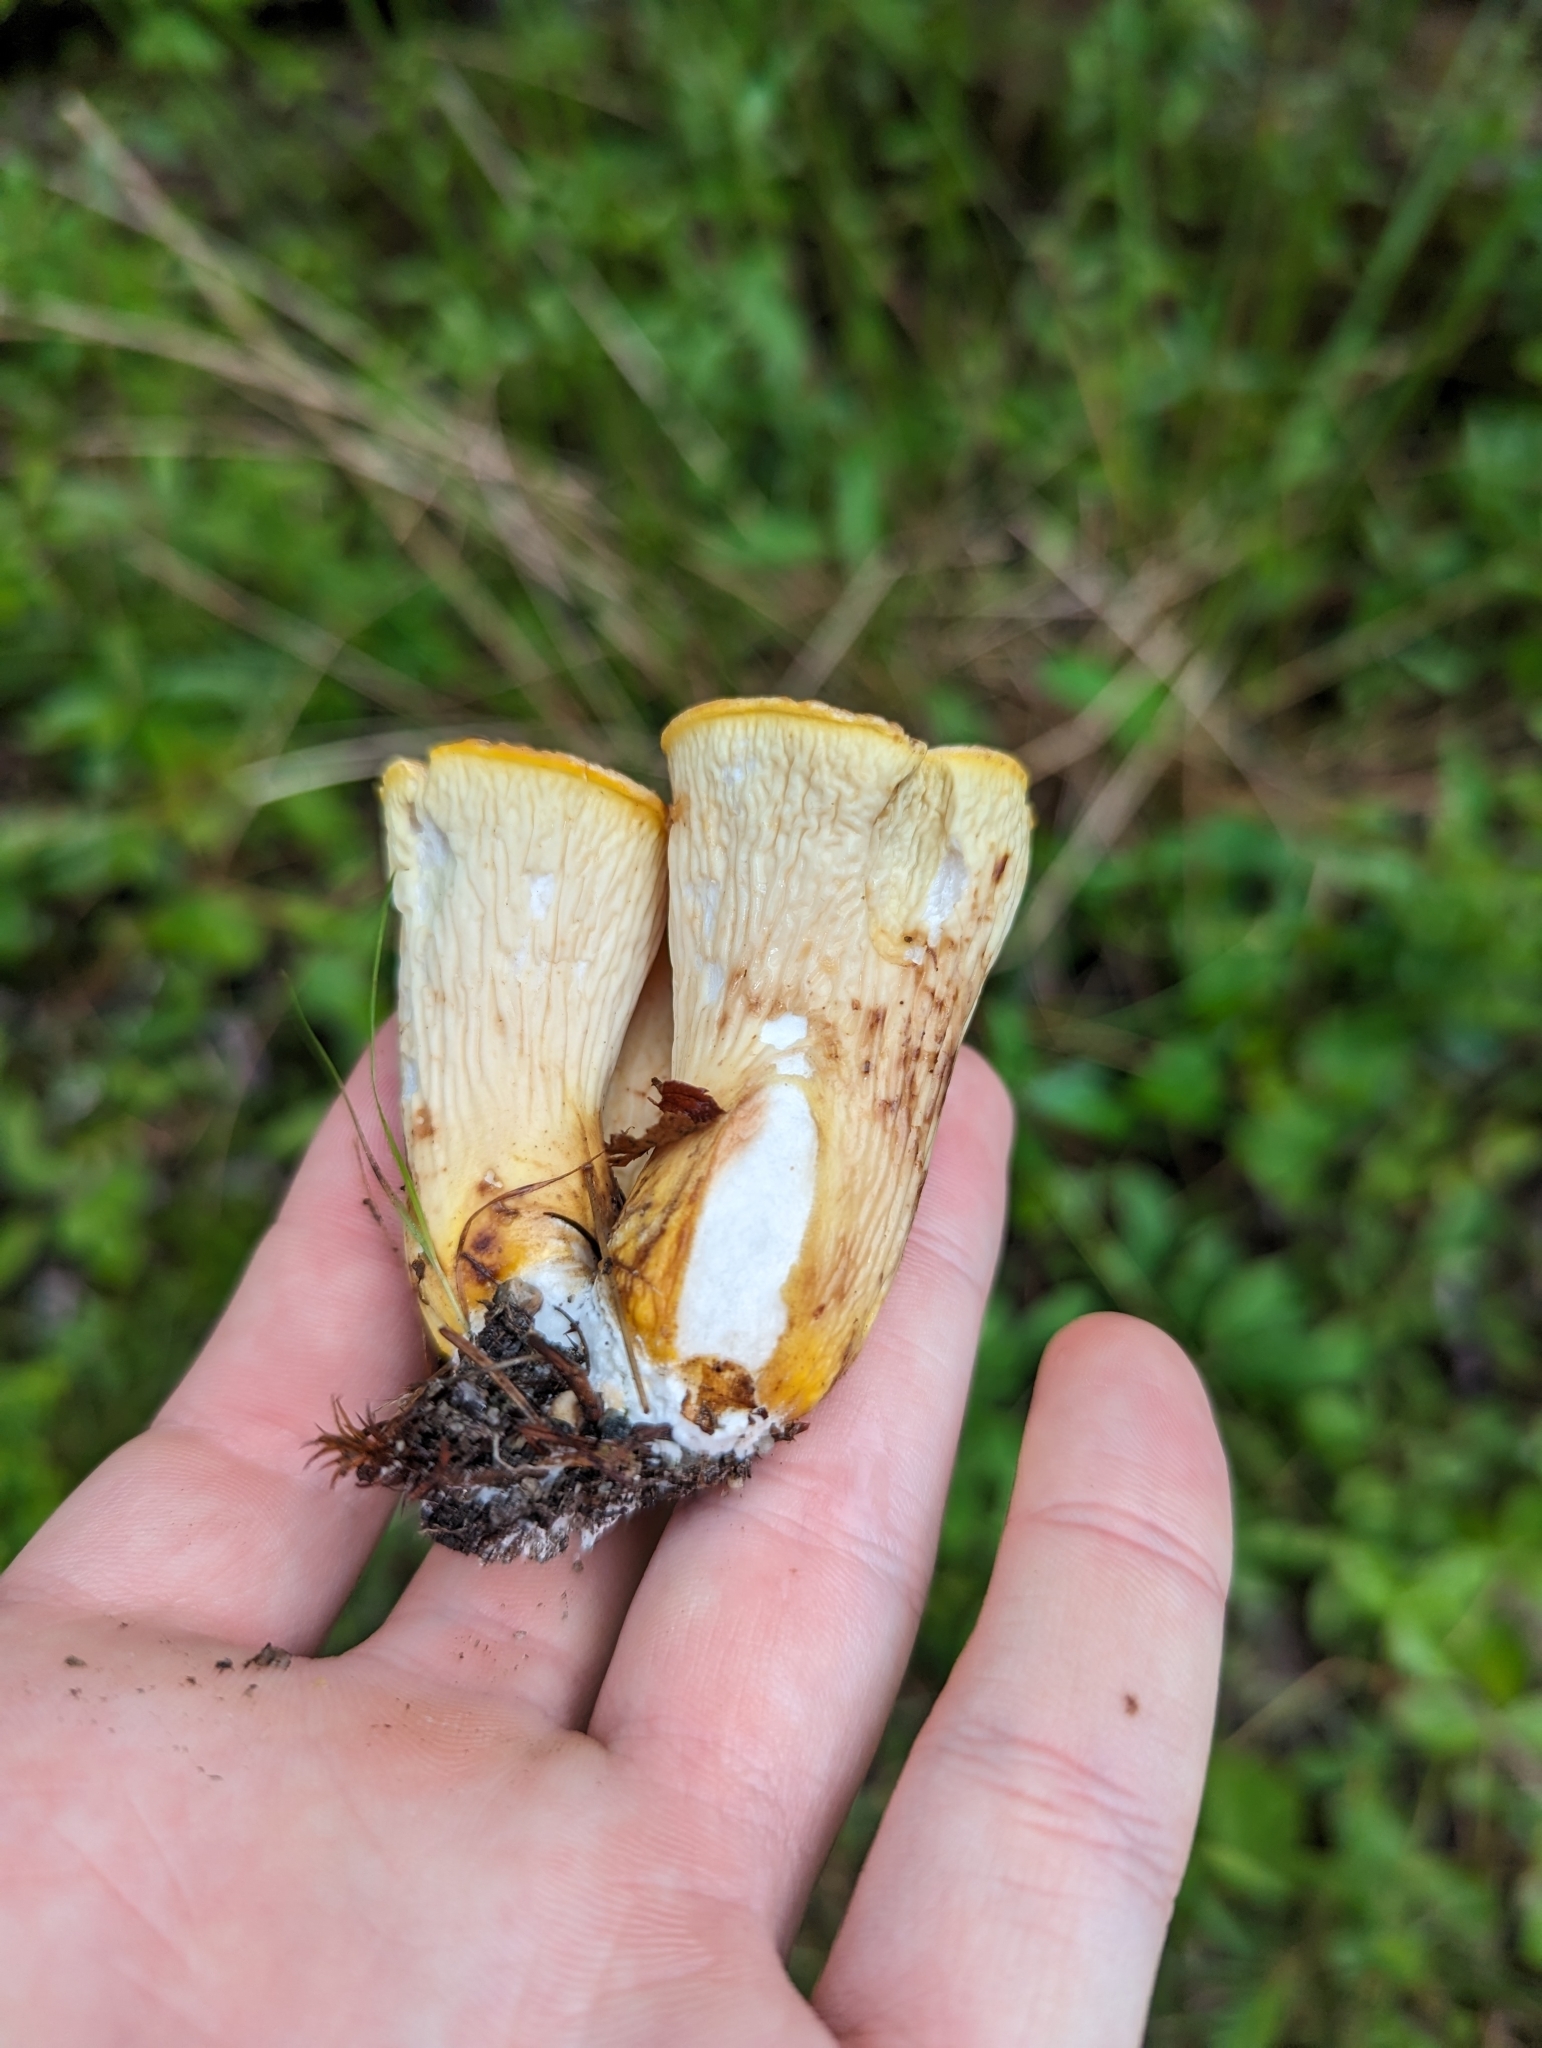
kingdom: Fungi
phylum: Basidiomycota
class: Agaricomycetes
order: Gomphales
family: Gomphaceae
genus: Turbinellus
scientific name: Turbinellus floccosus
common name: Scaly chanterelle
